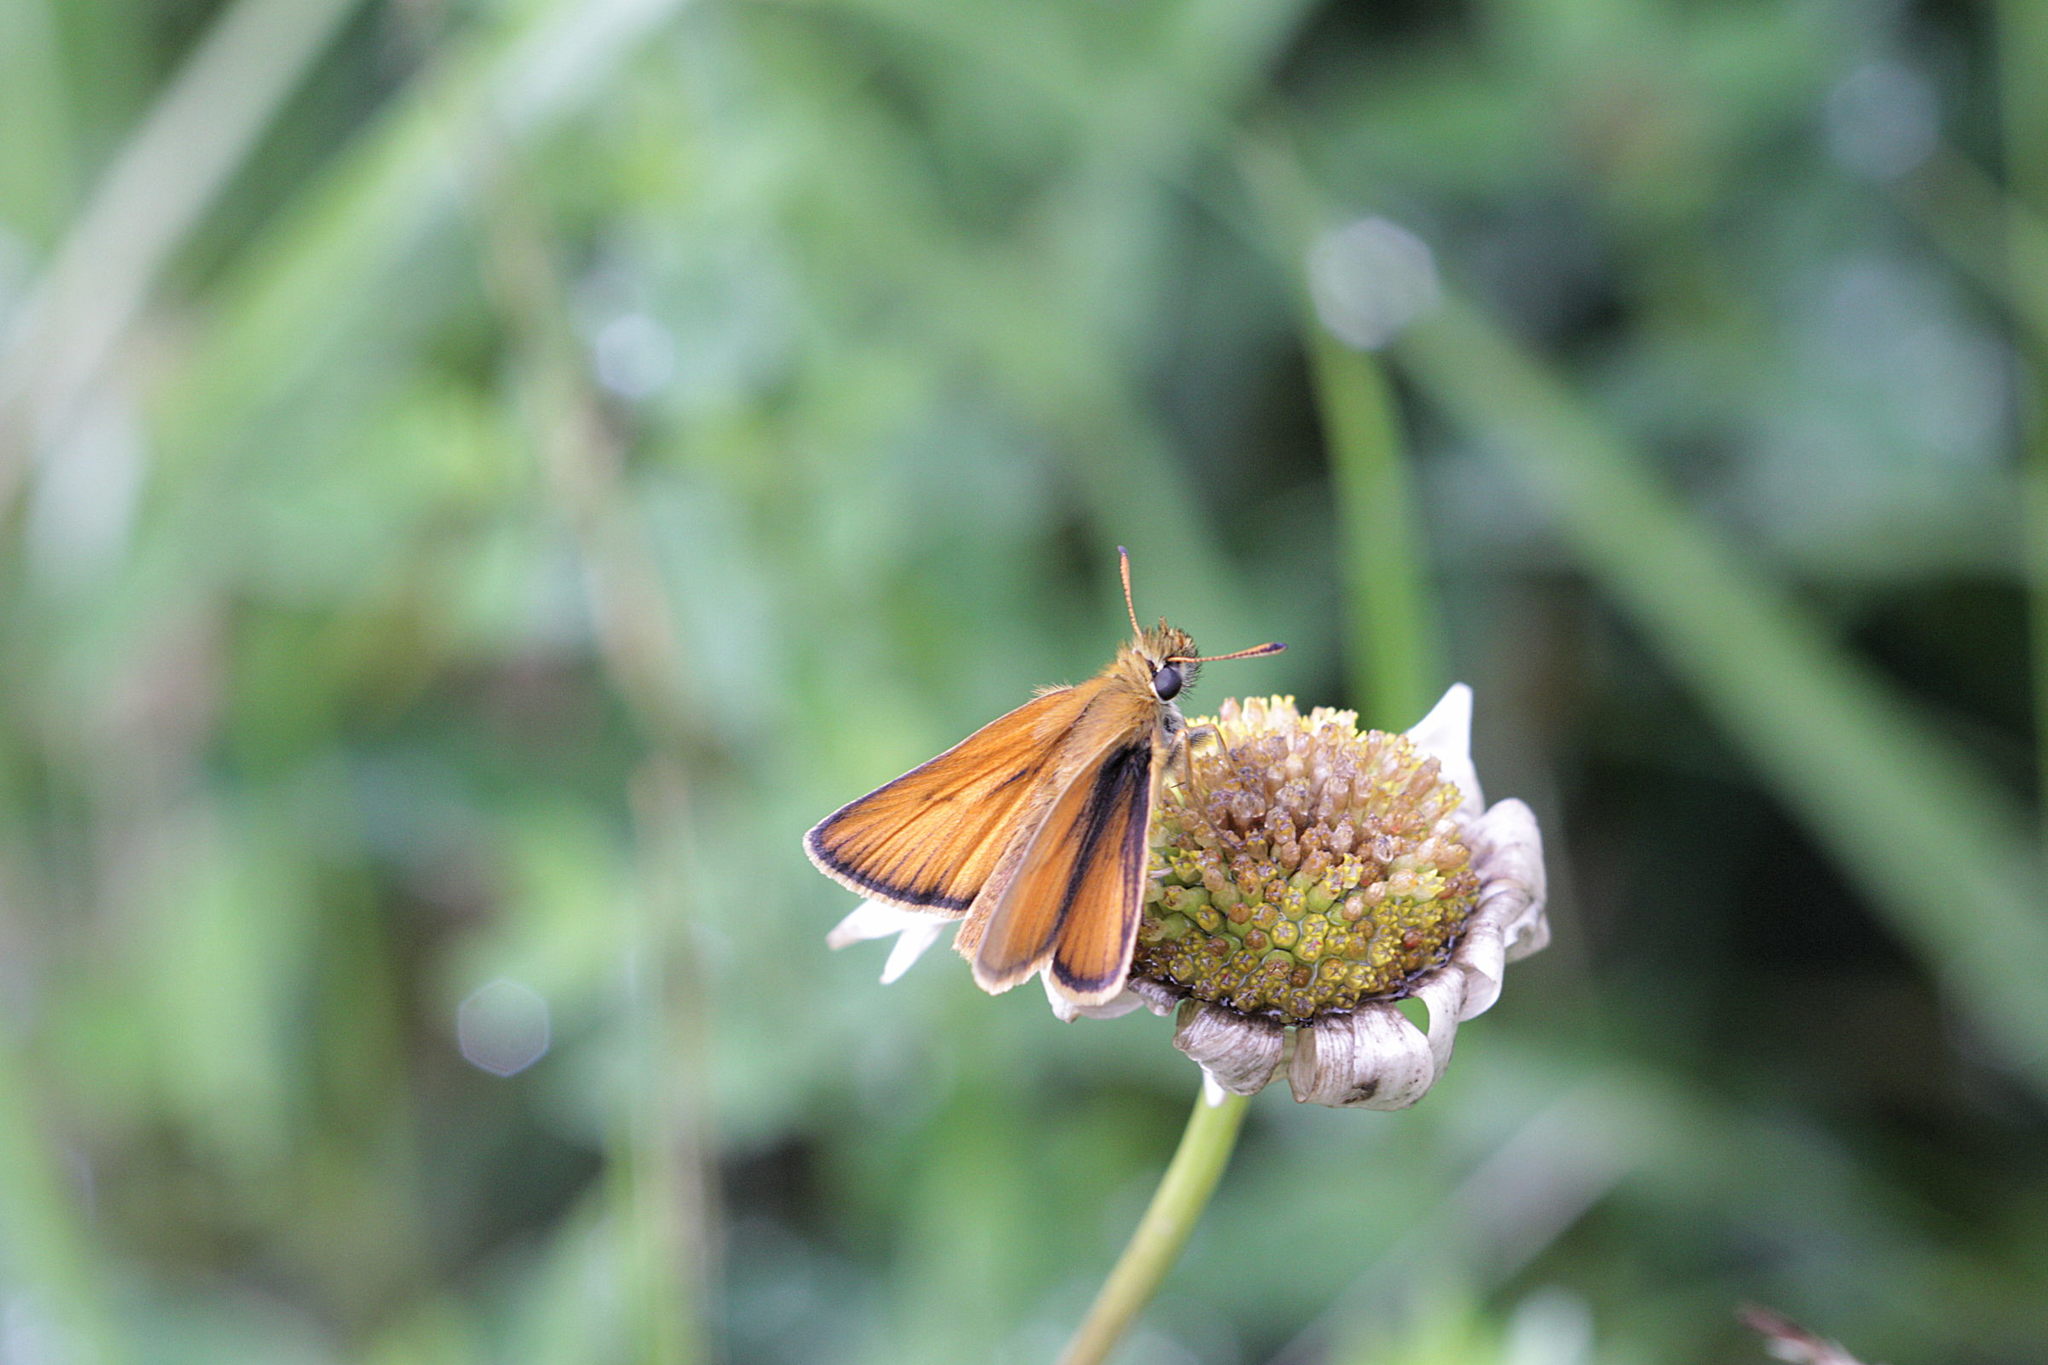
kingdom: Animalia
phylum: Arthropoda
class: Insecta
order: Lepidoptera
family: Hesperiidae
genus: Thymelicus
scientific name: Thymelicus sylvestris
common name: Small skipper
